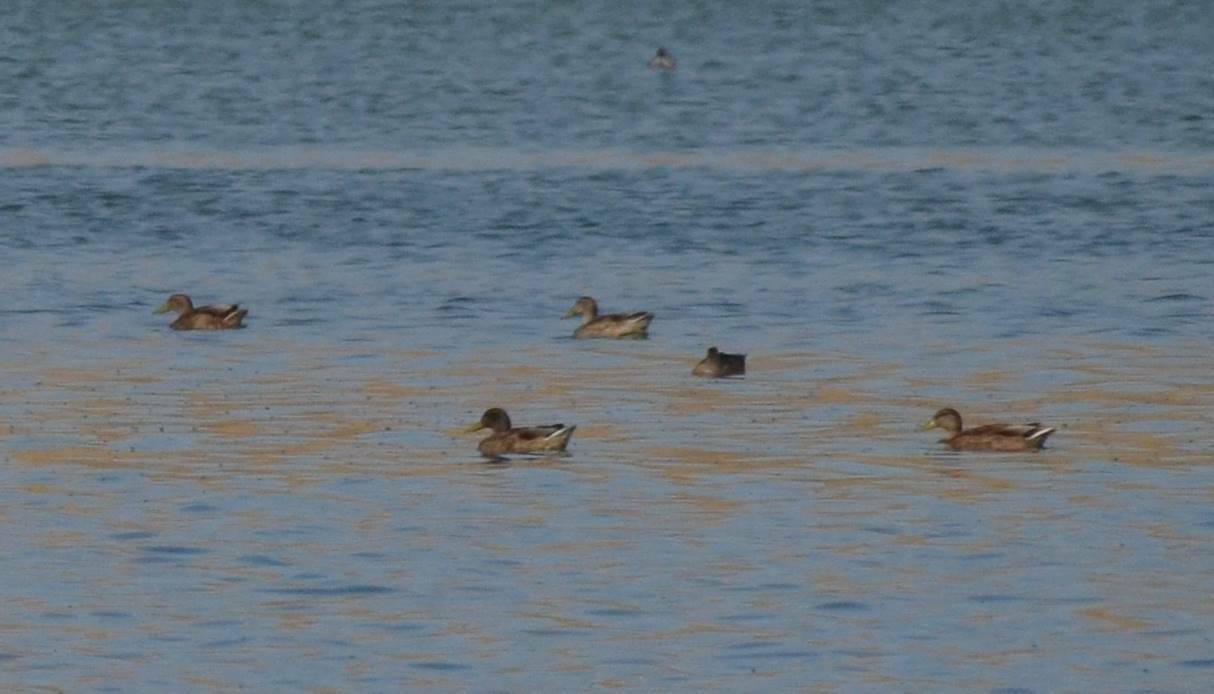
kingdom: Animalia
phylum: Chordata
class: Aves
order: Anseriformes
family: Anatidae
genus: Anas
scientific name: Anas platyrhynchos
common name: Mallard
